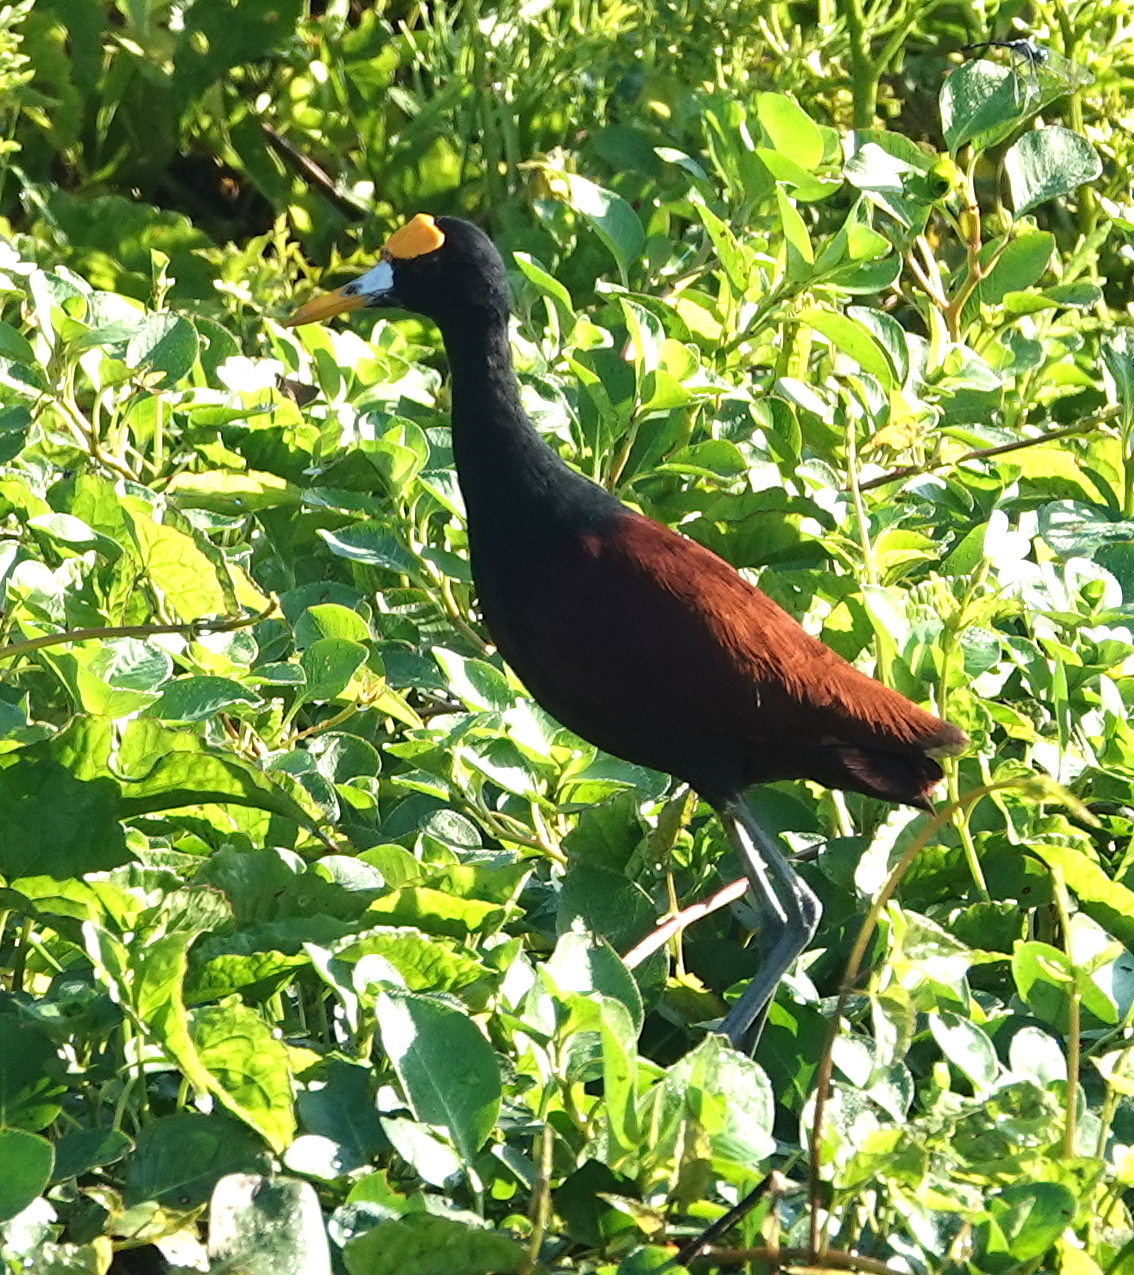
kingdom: Animalia
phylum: Chordata
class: Aves
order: Charadriiformes
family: Jacanidae
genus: Jacana
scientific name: Jacana spinosa
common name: Northern jacana
